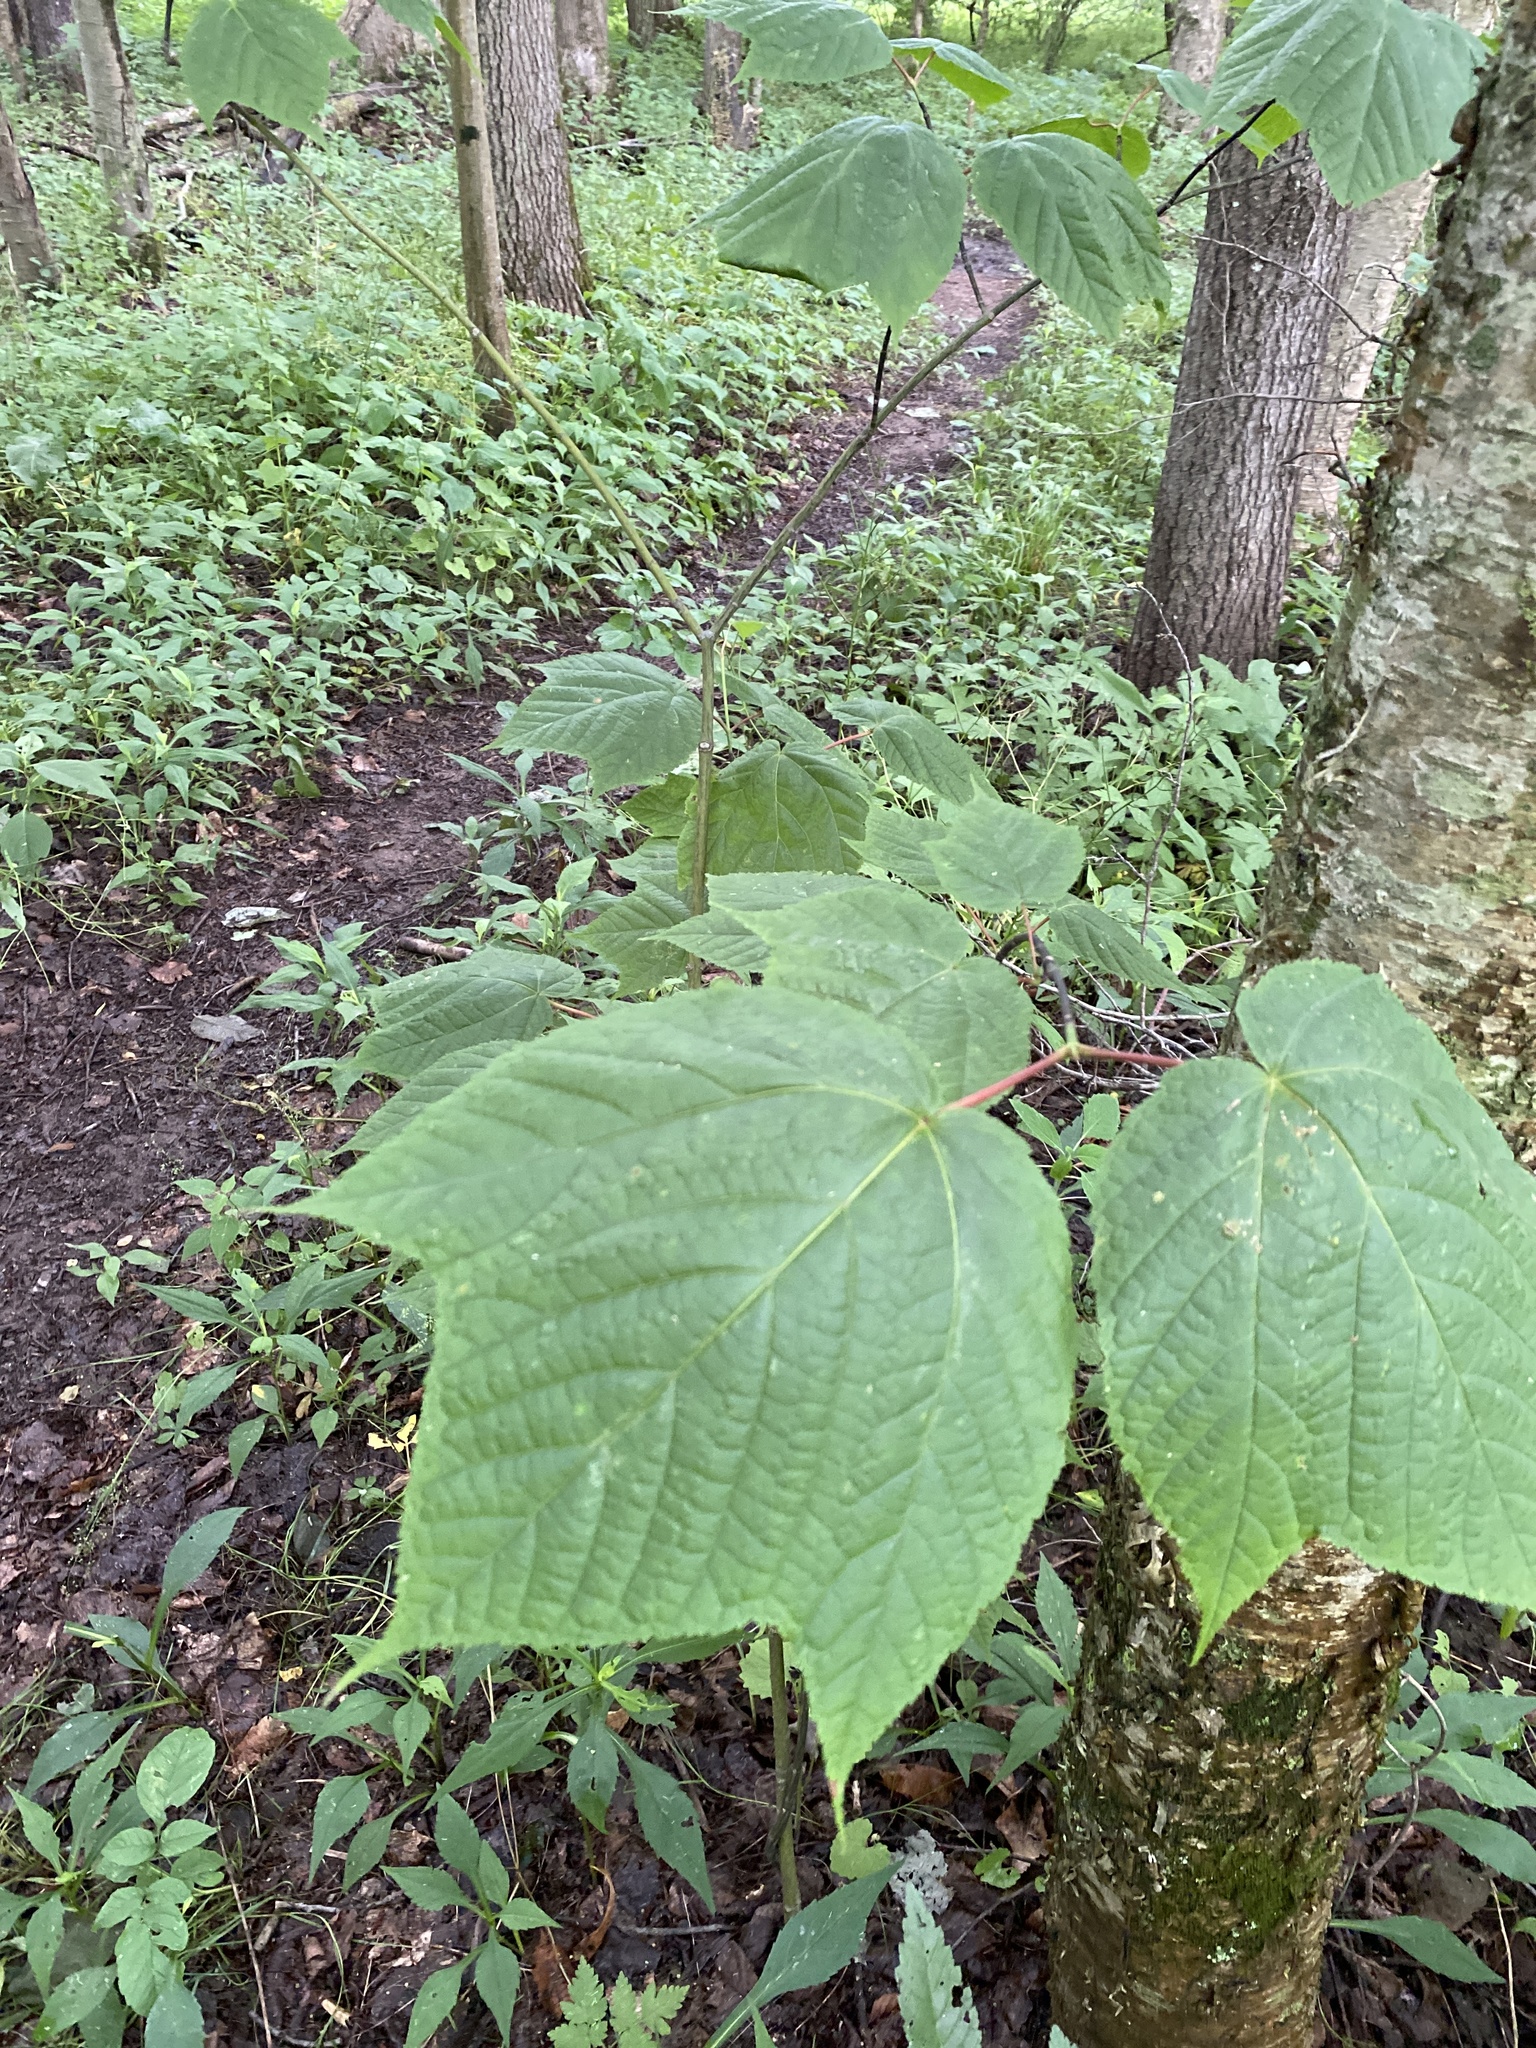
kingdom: Plantae
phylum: Tracheophyta
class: Magnoliopsida
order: Sapindales
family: Sapindaceae
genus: Acer
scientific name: Acer pensylvanicum
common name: Moosewood
